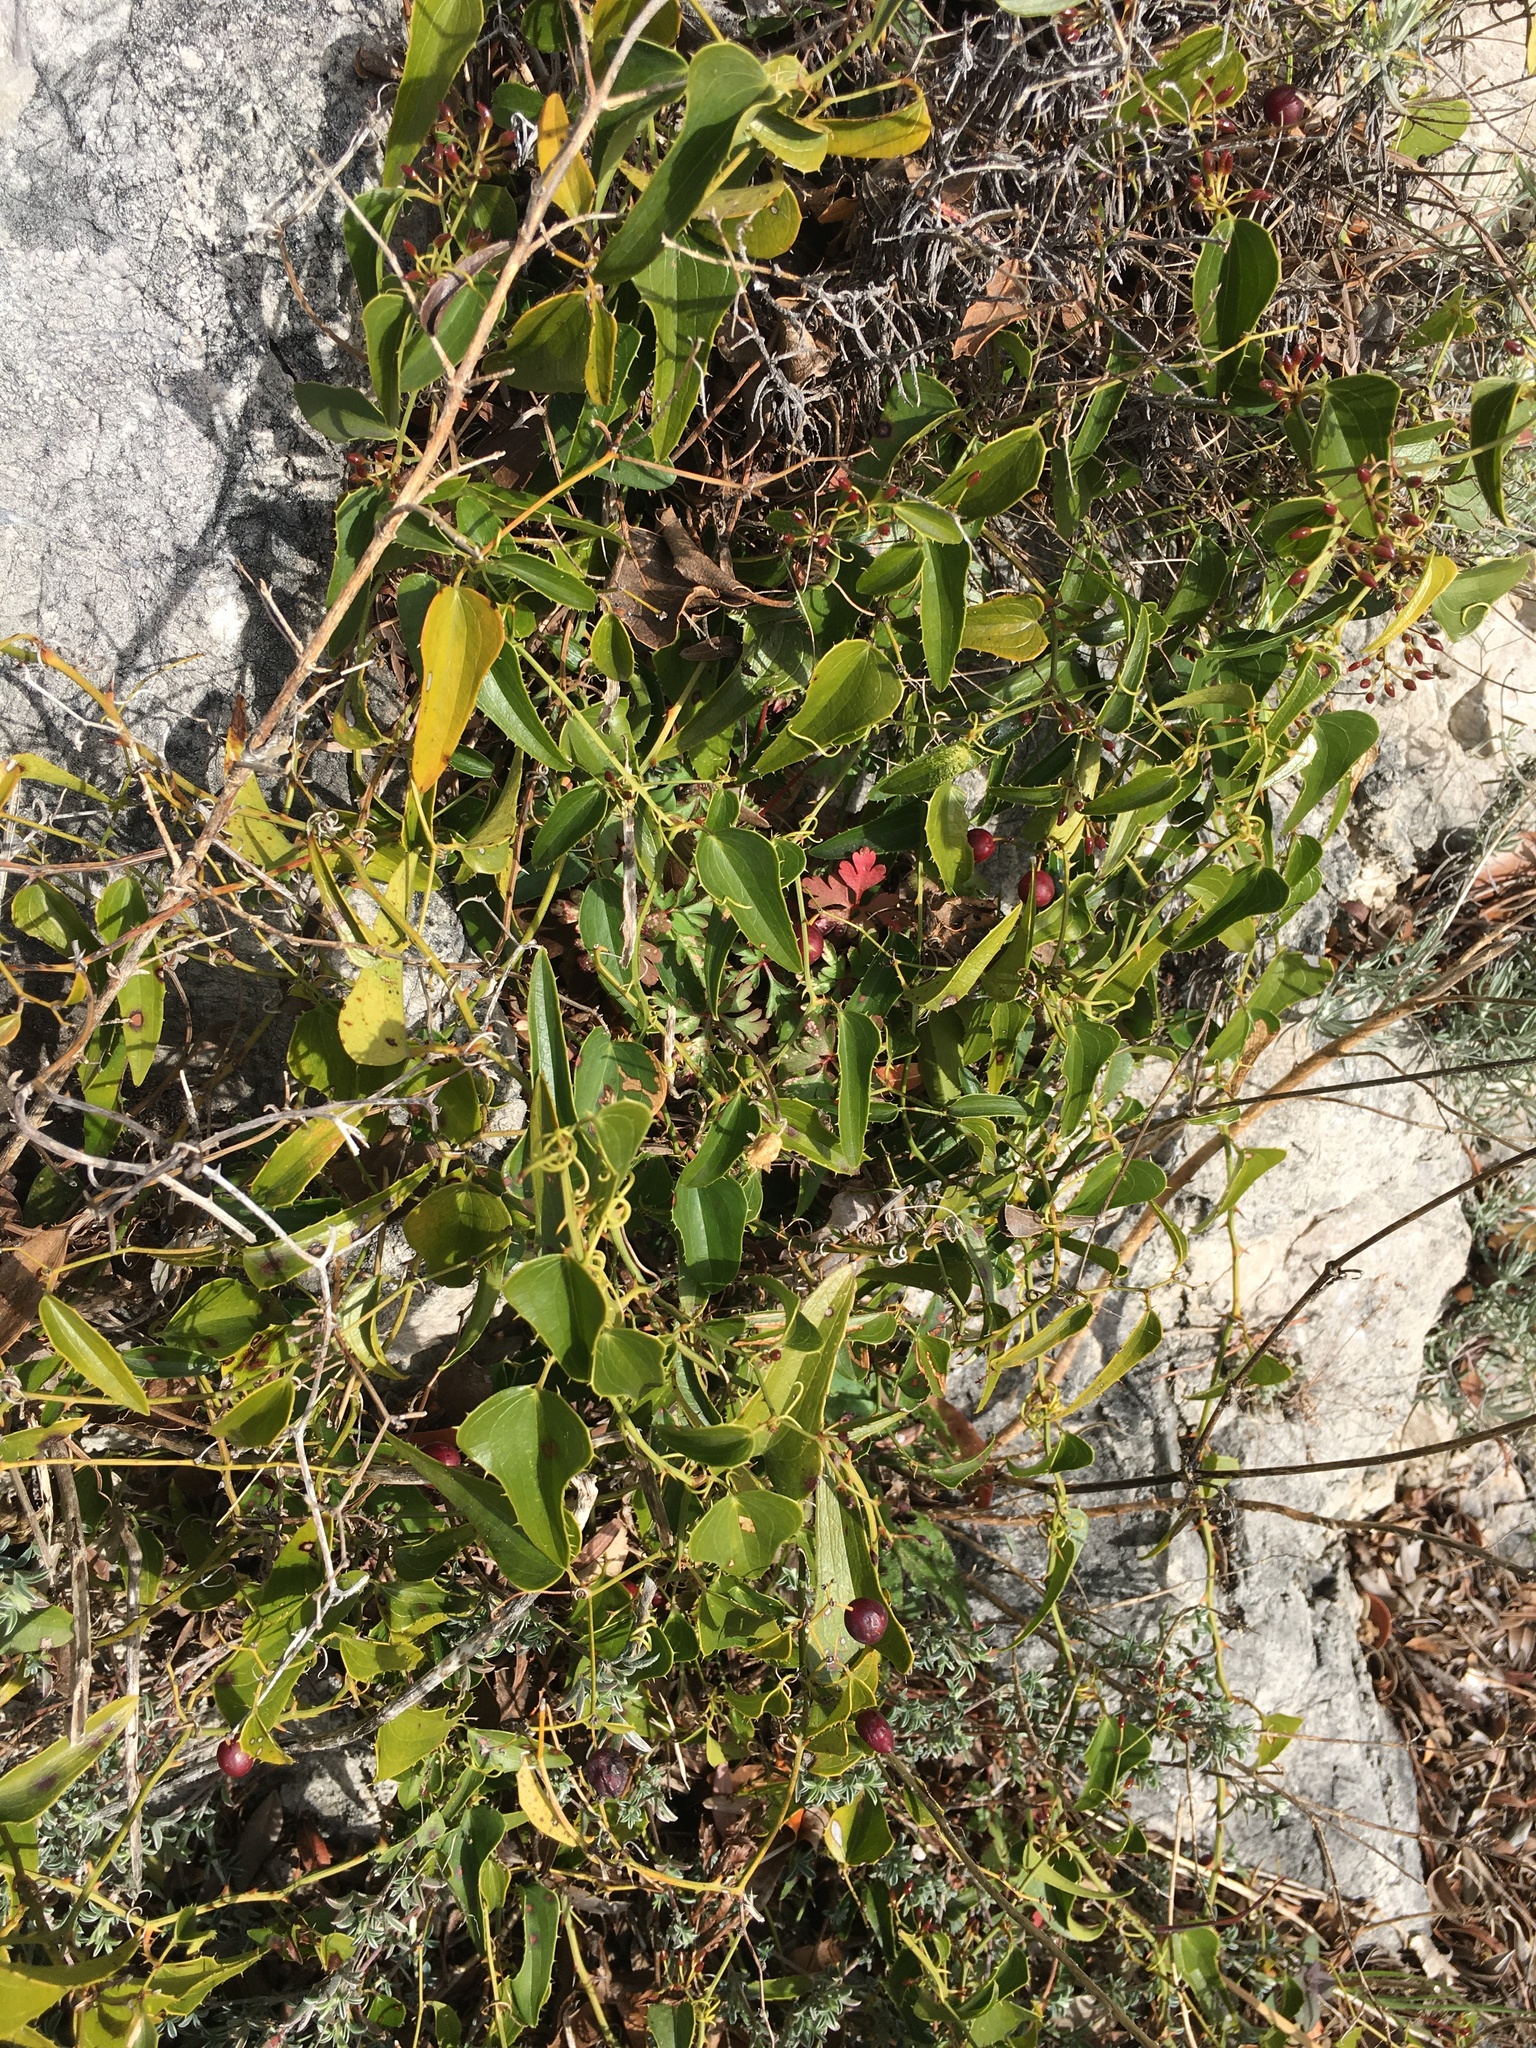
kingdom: Plantae
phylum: Tracheophyta
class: Liliopsida
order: Liliales
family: Smilacaceae
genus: Smilax
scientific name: Smilax aspera
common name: Common smilax
